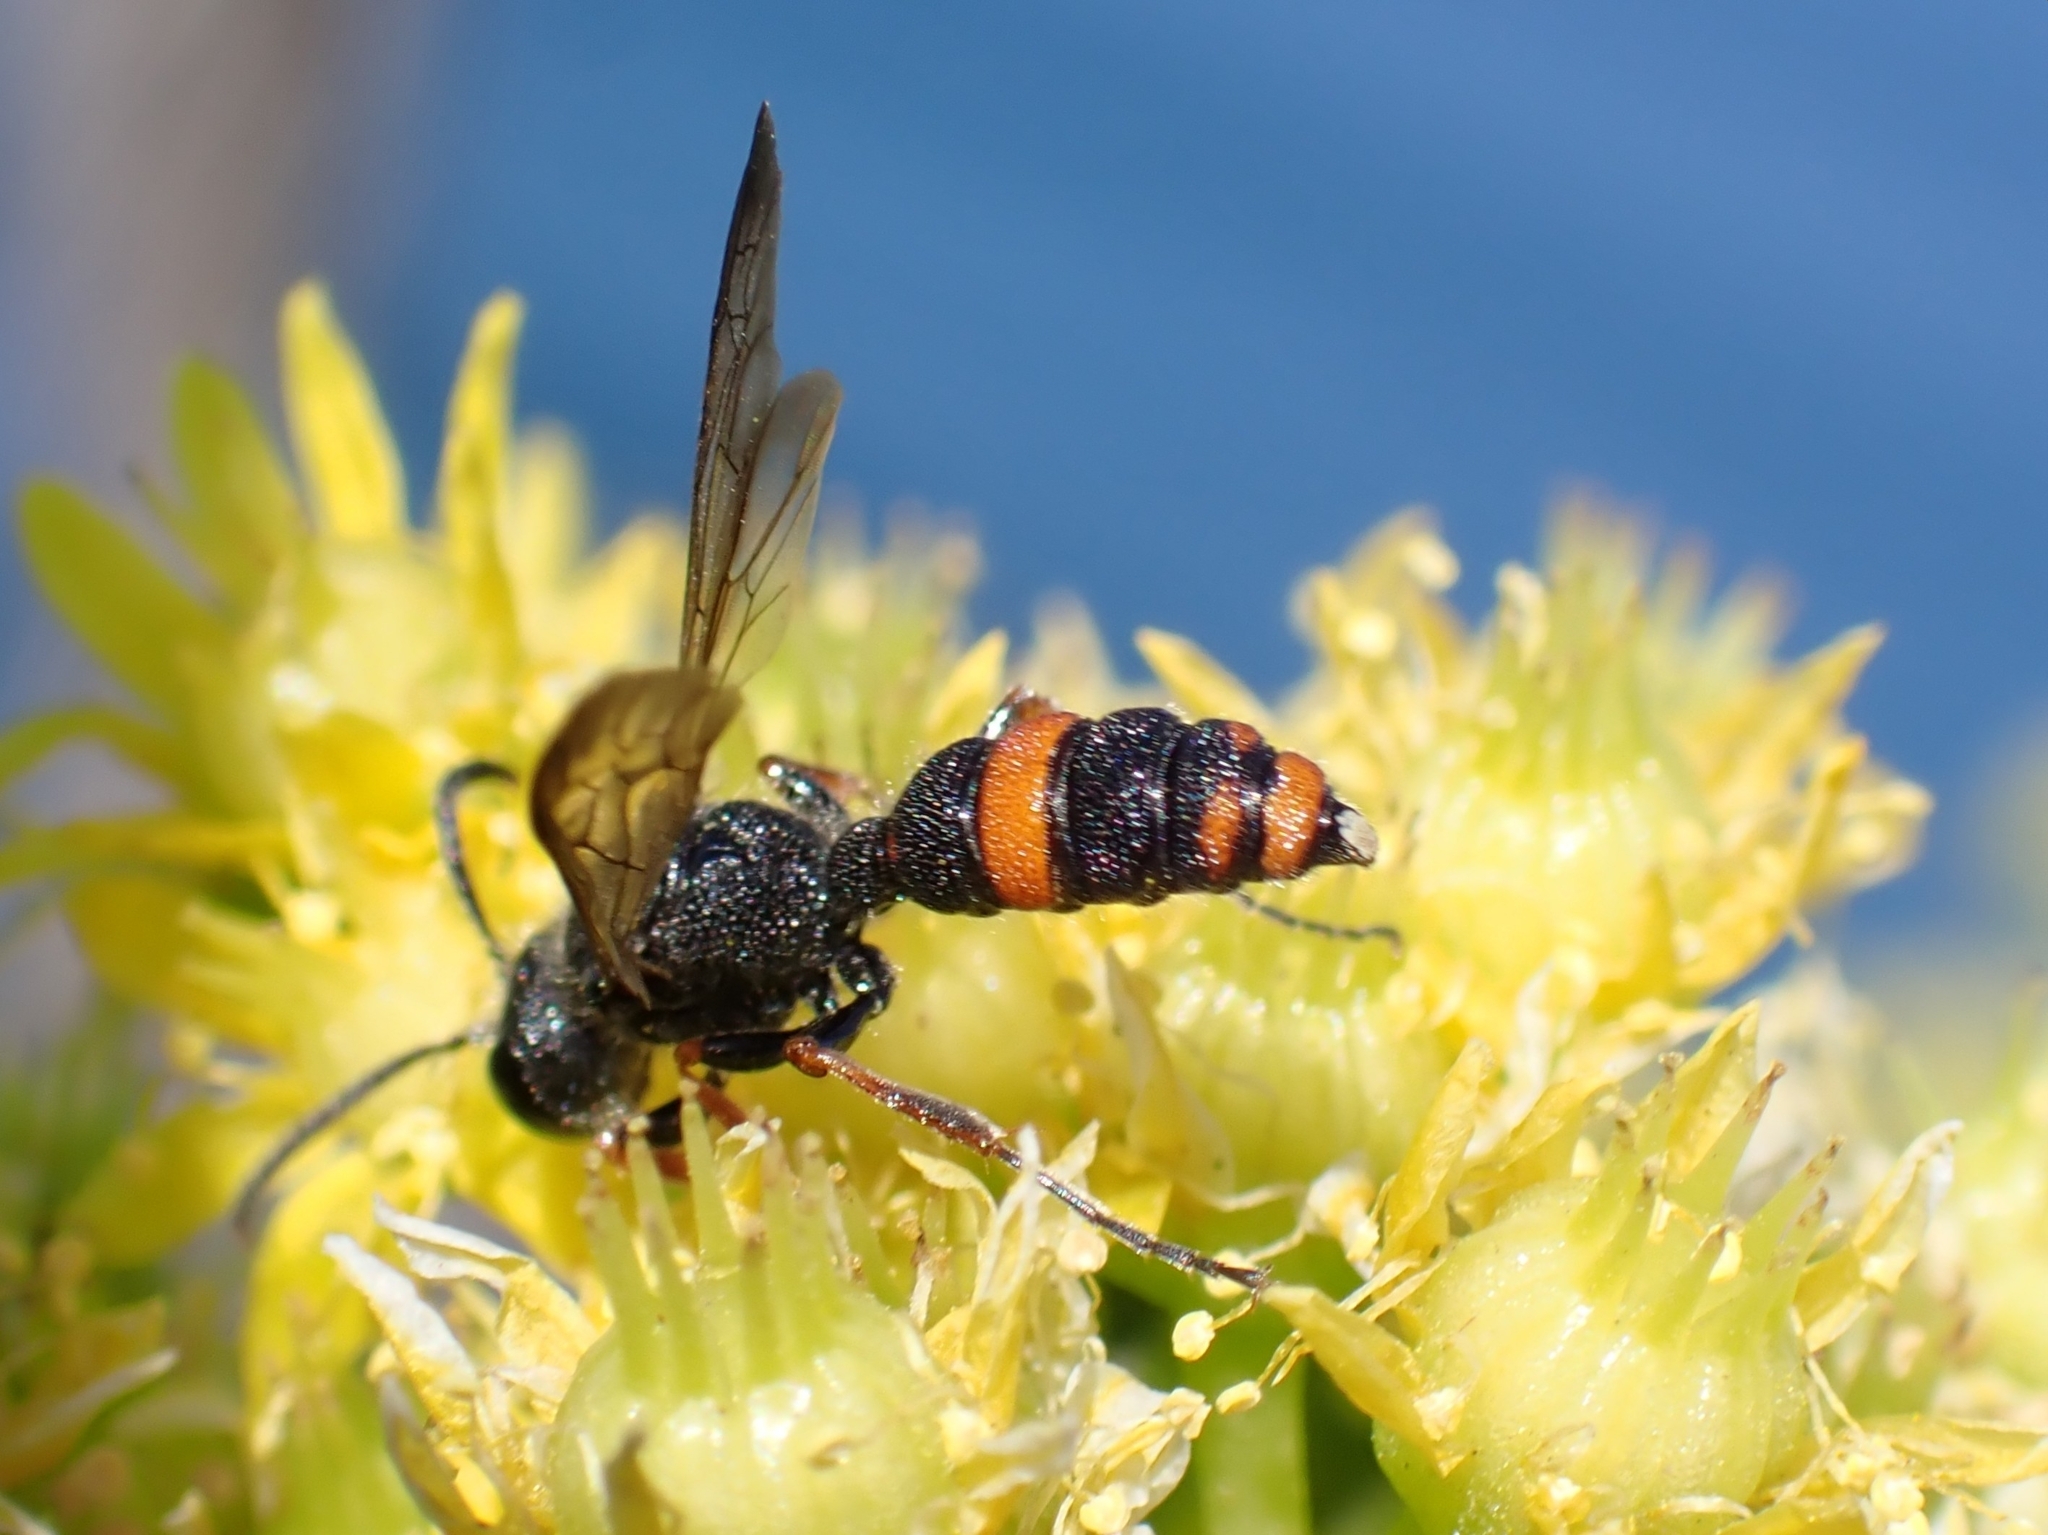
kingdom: Animalia
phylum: Arthropoda
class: Insecta
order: Hymenoptera
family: Crabronidae
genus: Cerceris
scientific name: Cerceris concinna
